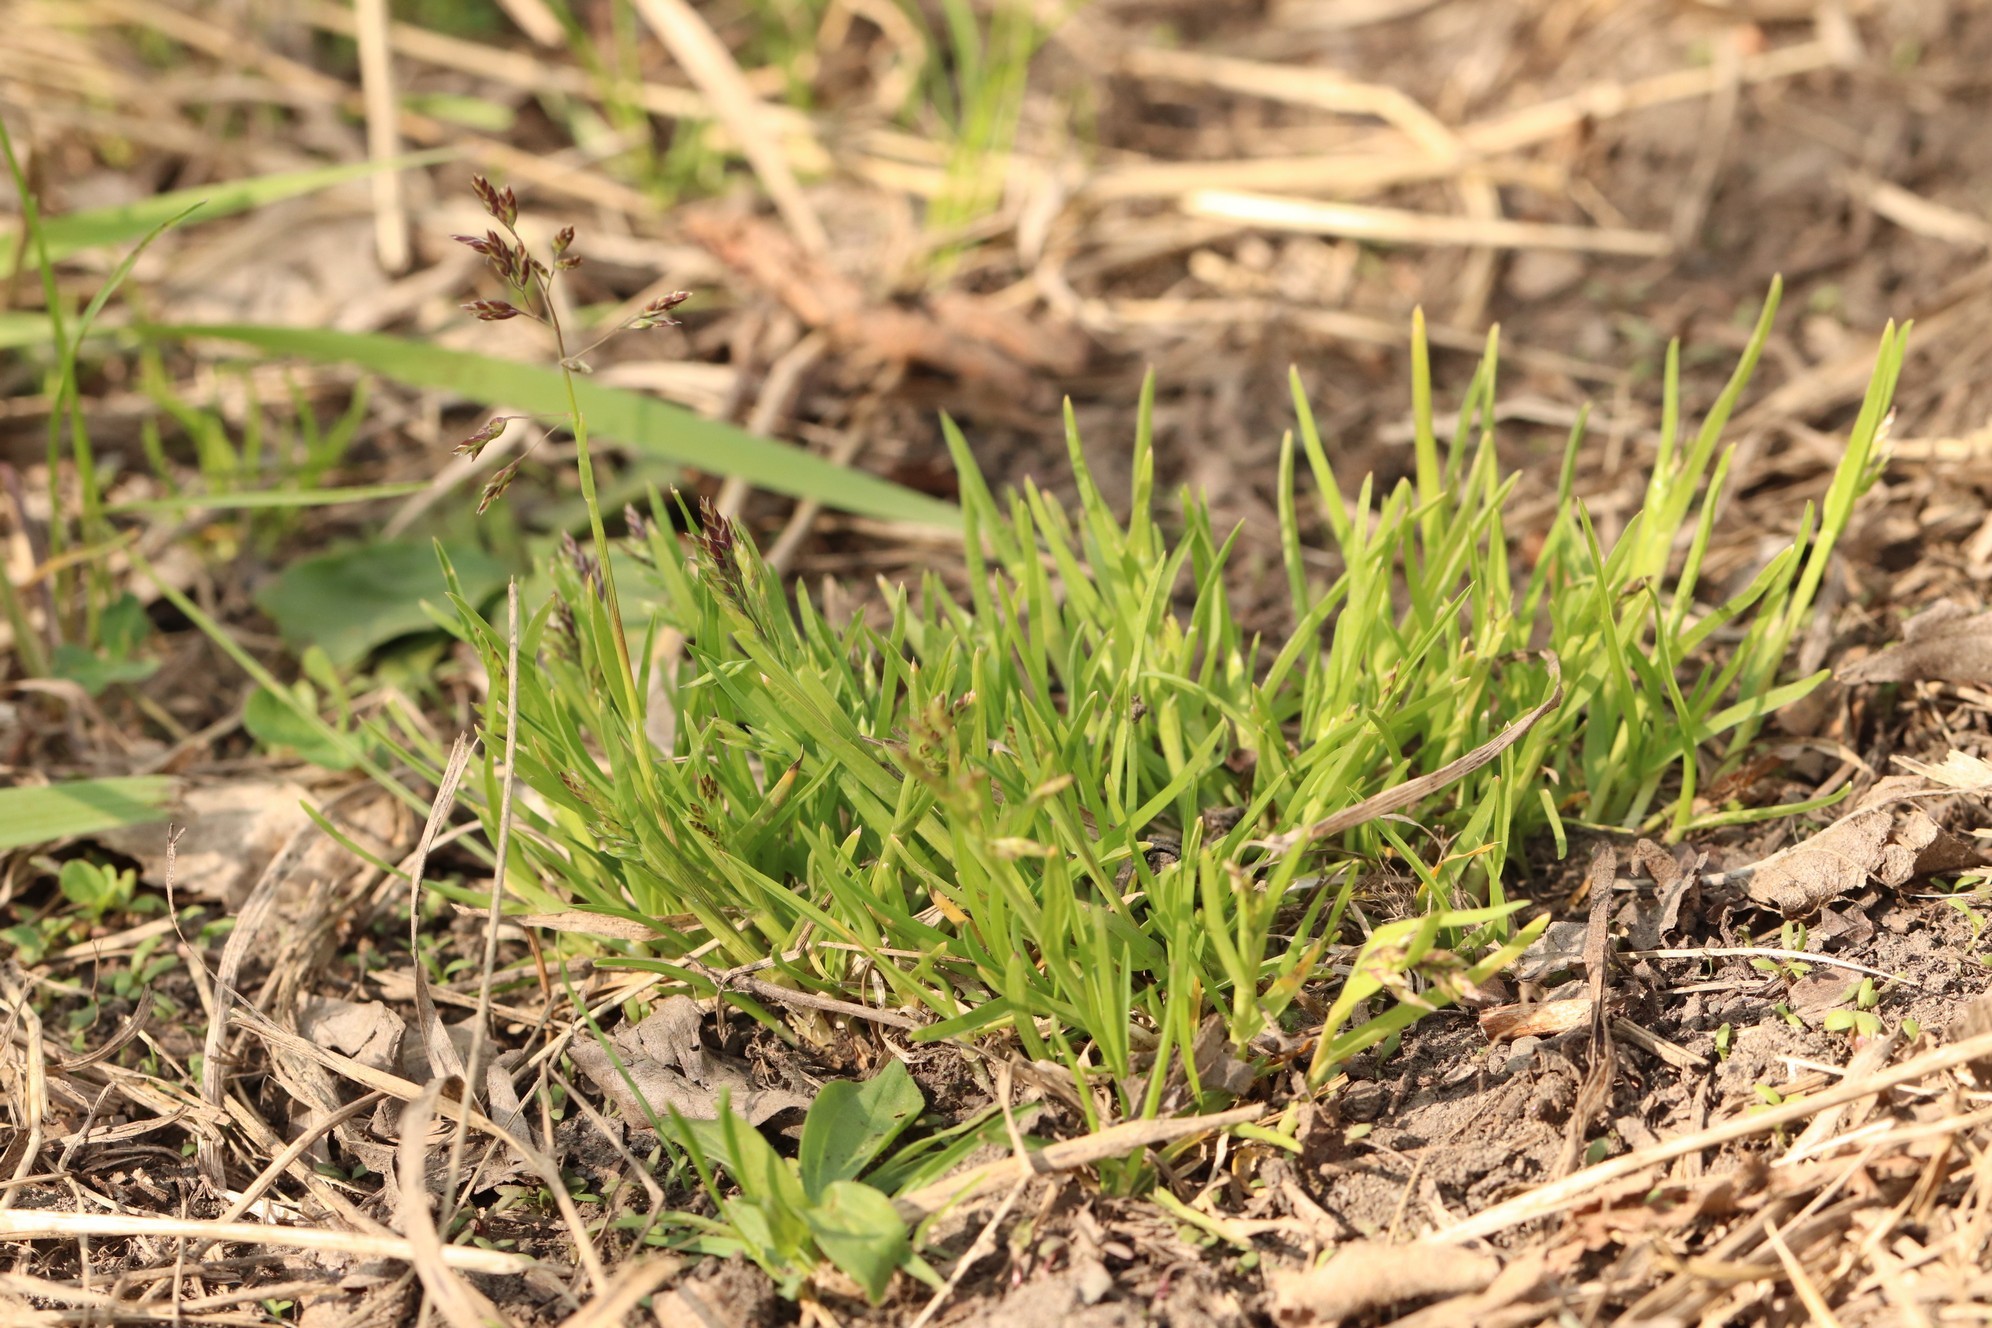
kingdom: Plantae
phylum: Tracheophyta
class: Liliopsida
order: Poales
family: Poaceae
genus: Poa
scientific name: Poa annua
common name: Annual bluegrass
